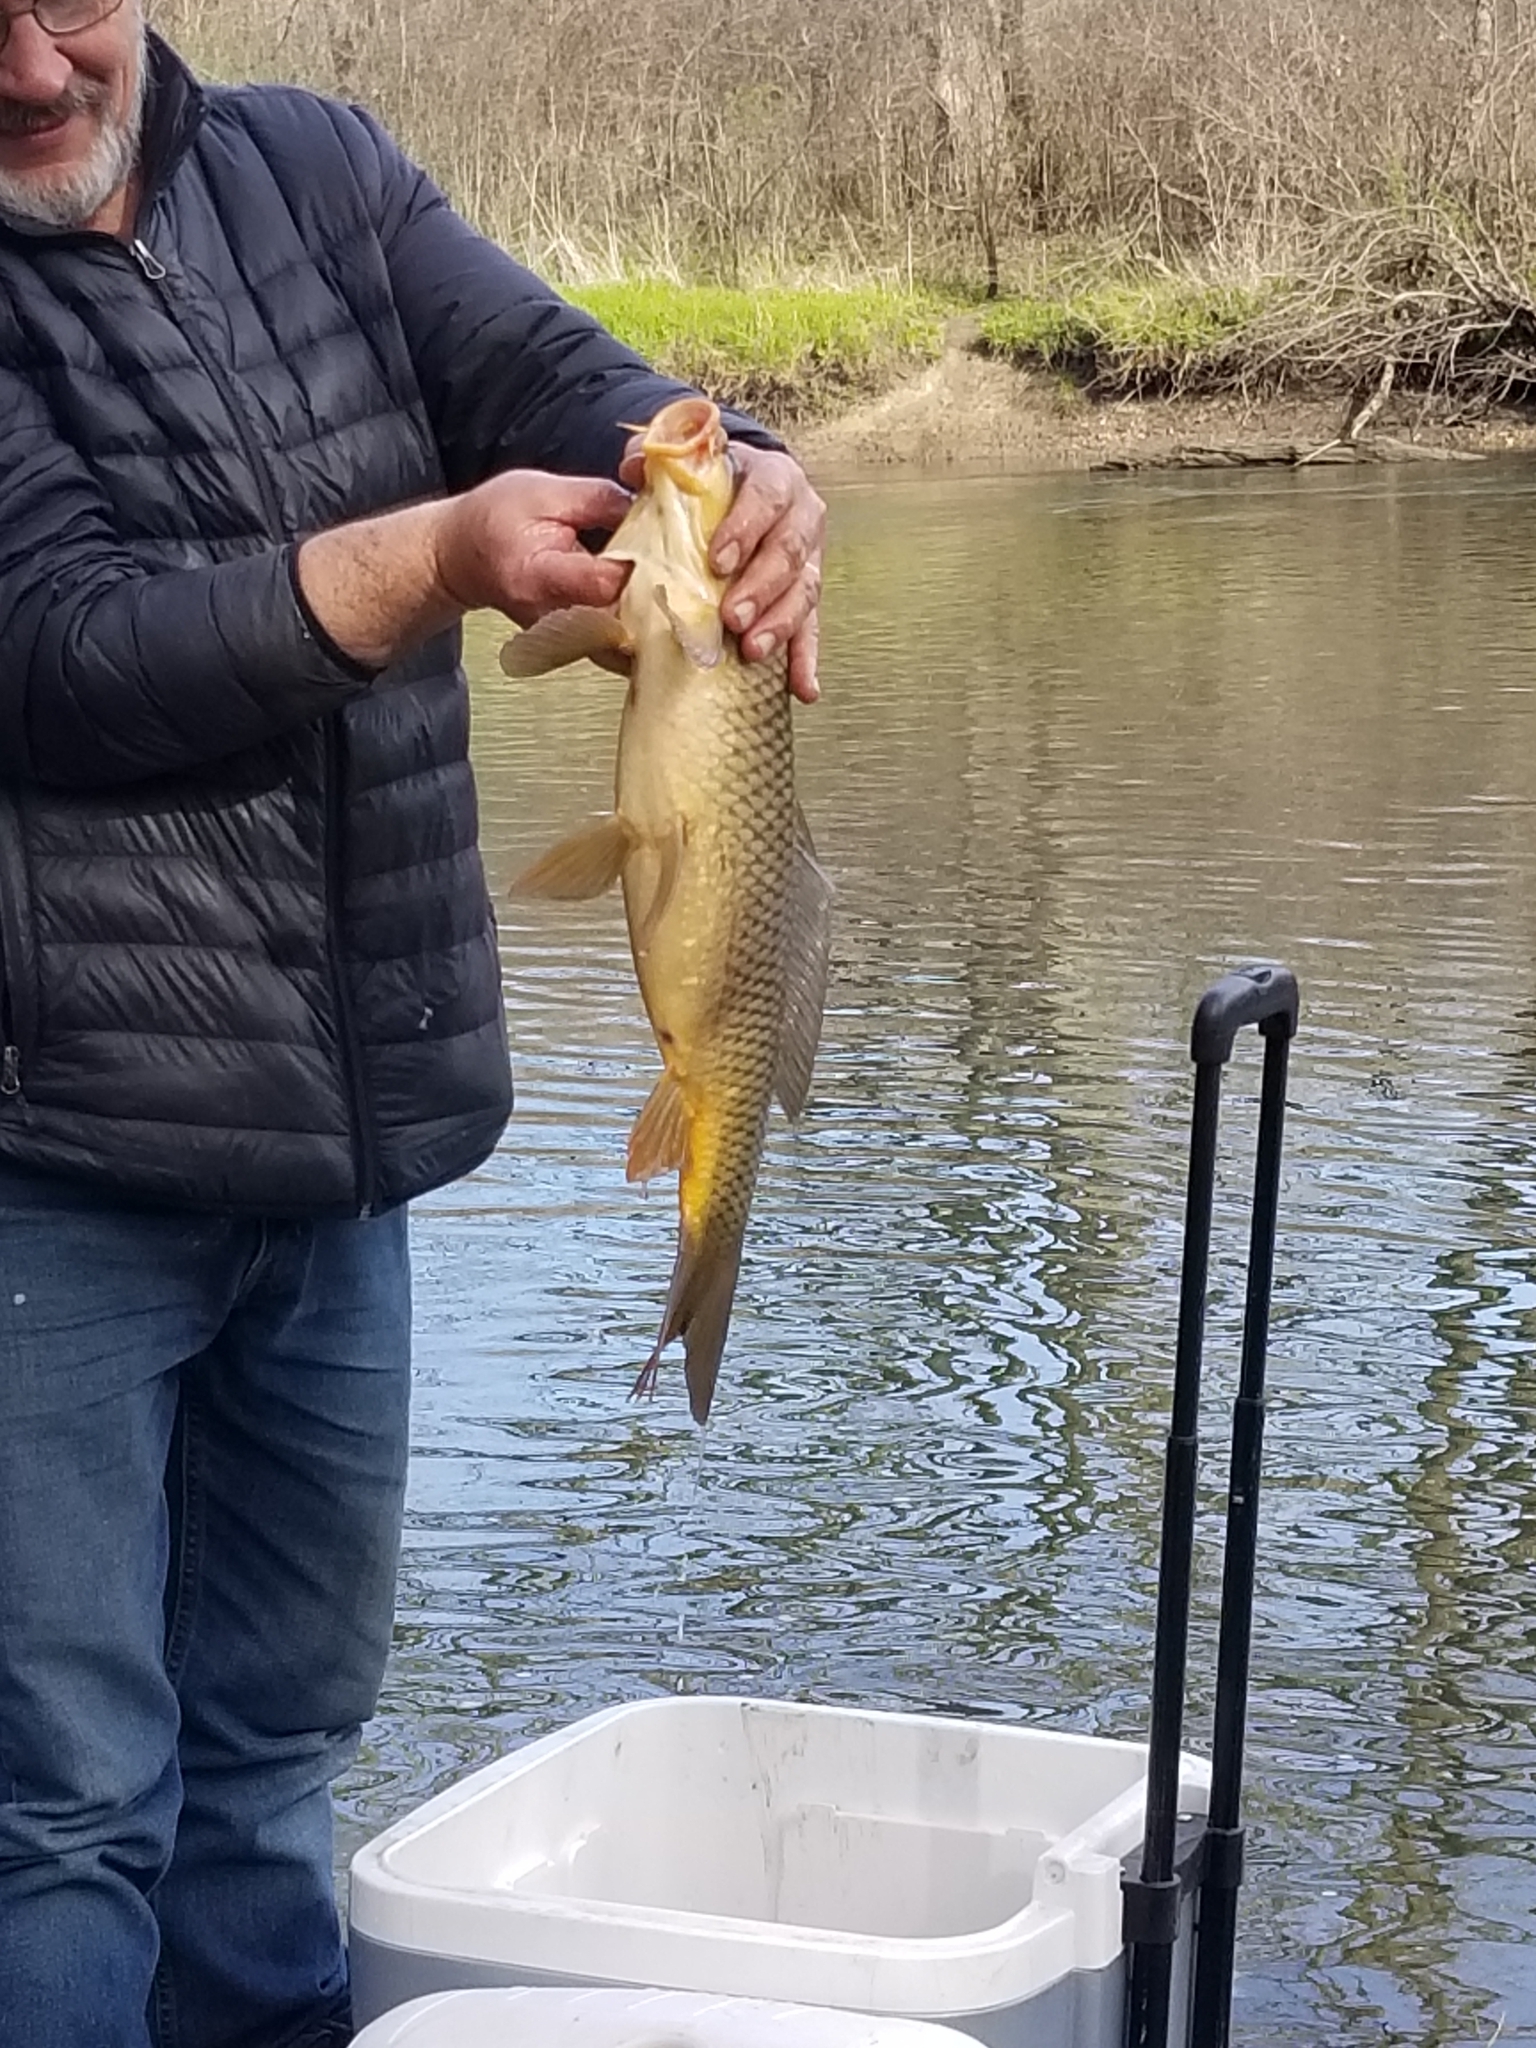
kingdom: Animalia
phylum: Chordata
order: Cypriniformes
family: Cyprinidae
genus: Cyprinus
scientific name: Cyprinus carpio
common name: Common carp
